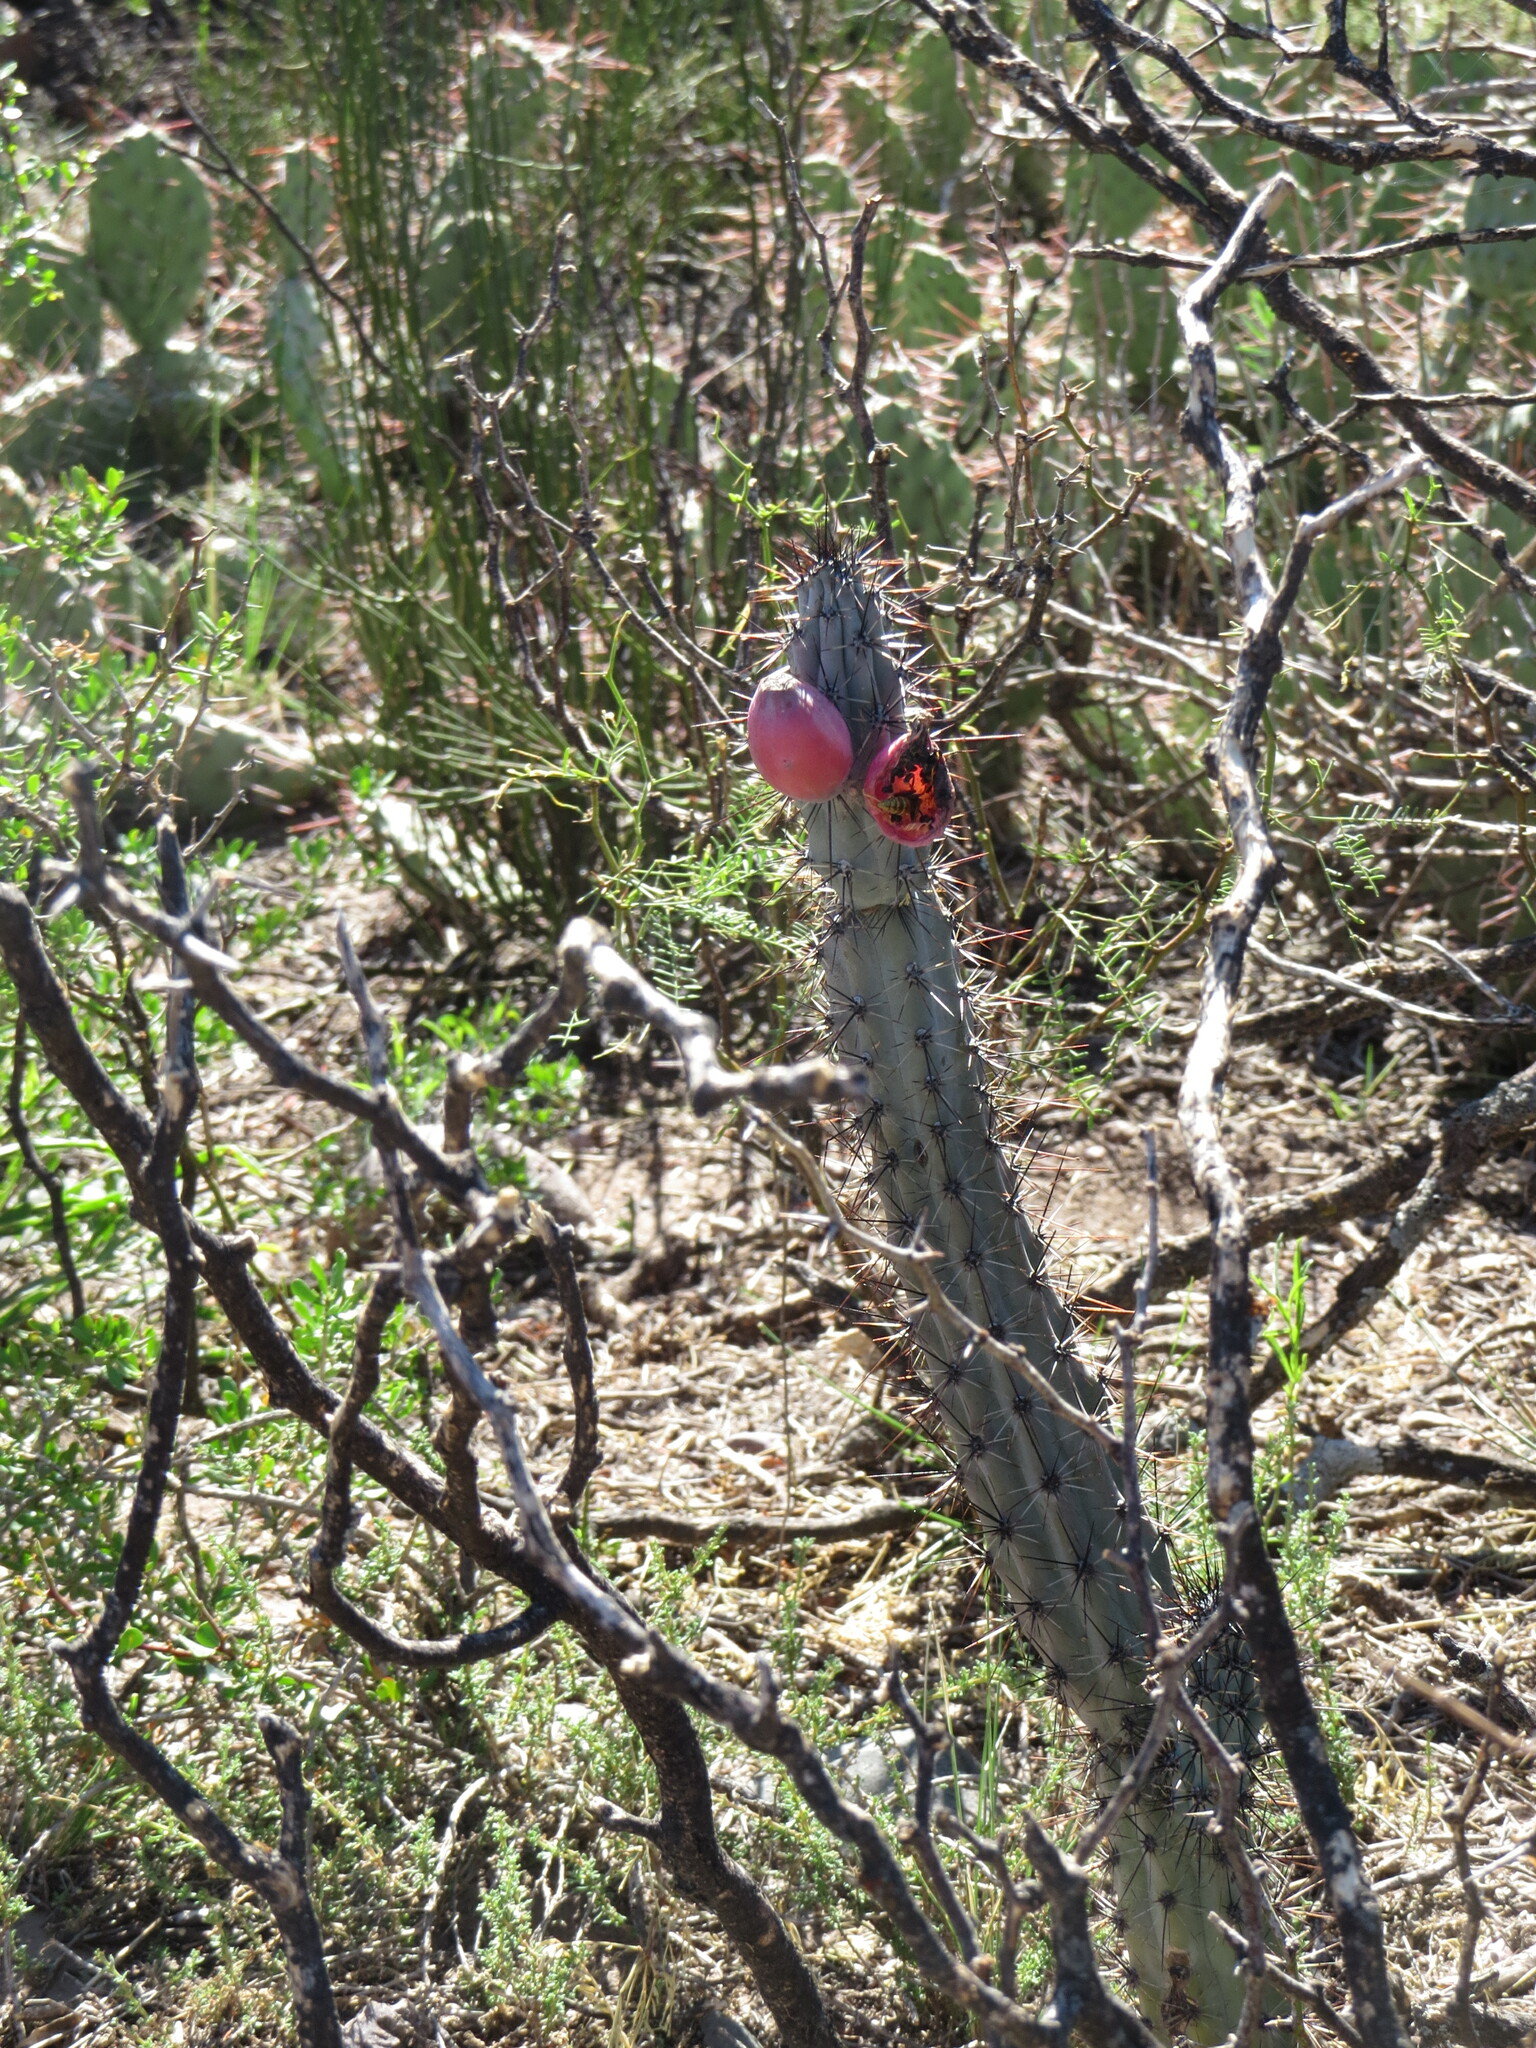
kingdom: Plantae
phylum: Tracheophyta
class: Magnoliopsida
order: Caryophyllales
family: Cactaceae
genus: Cereus
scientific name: Cereus aethiops
